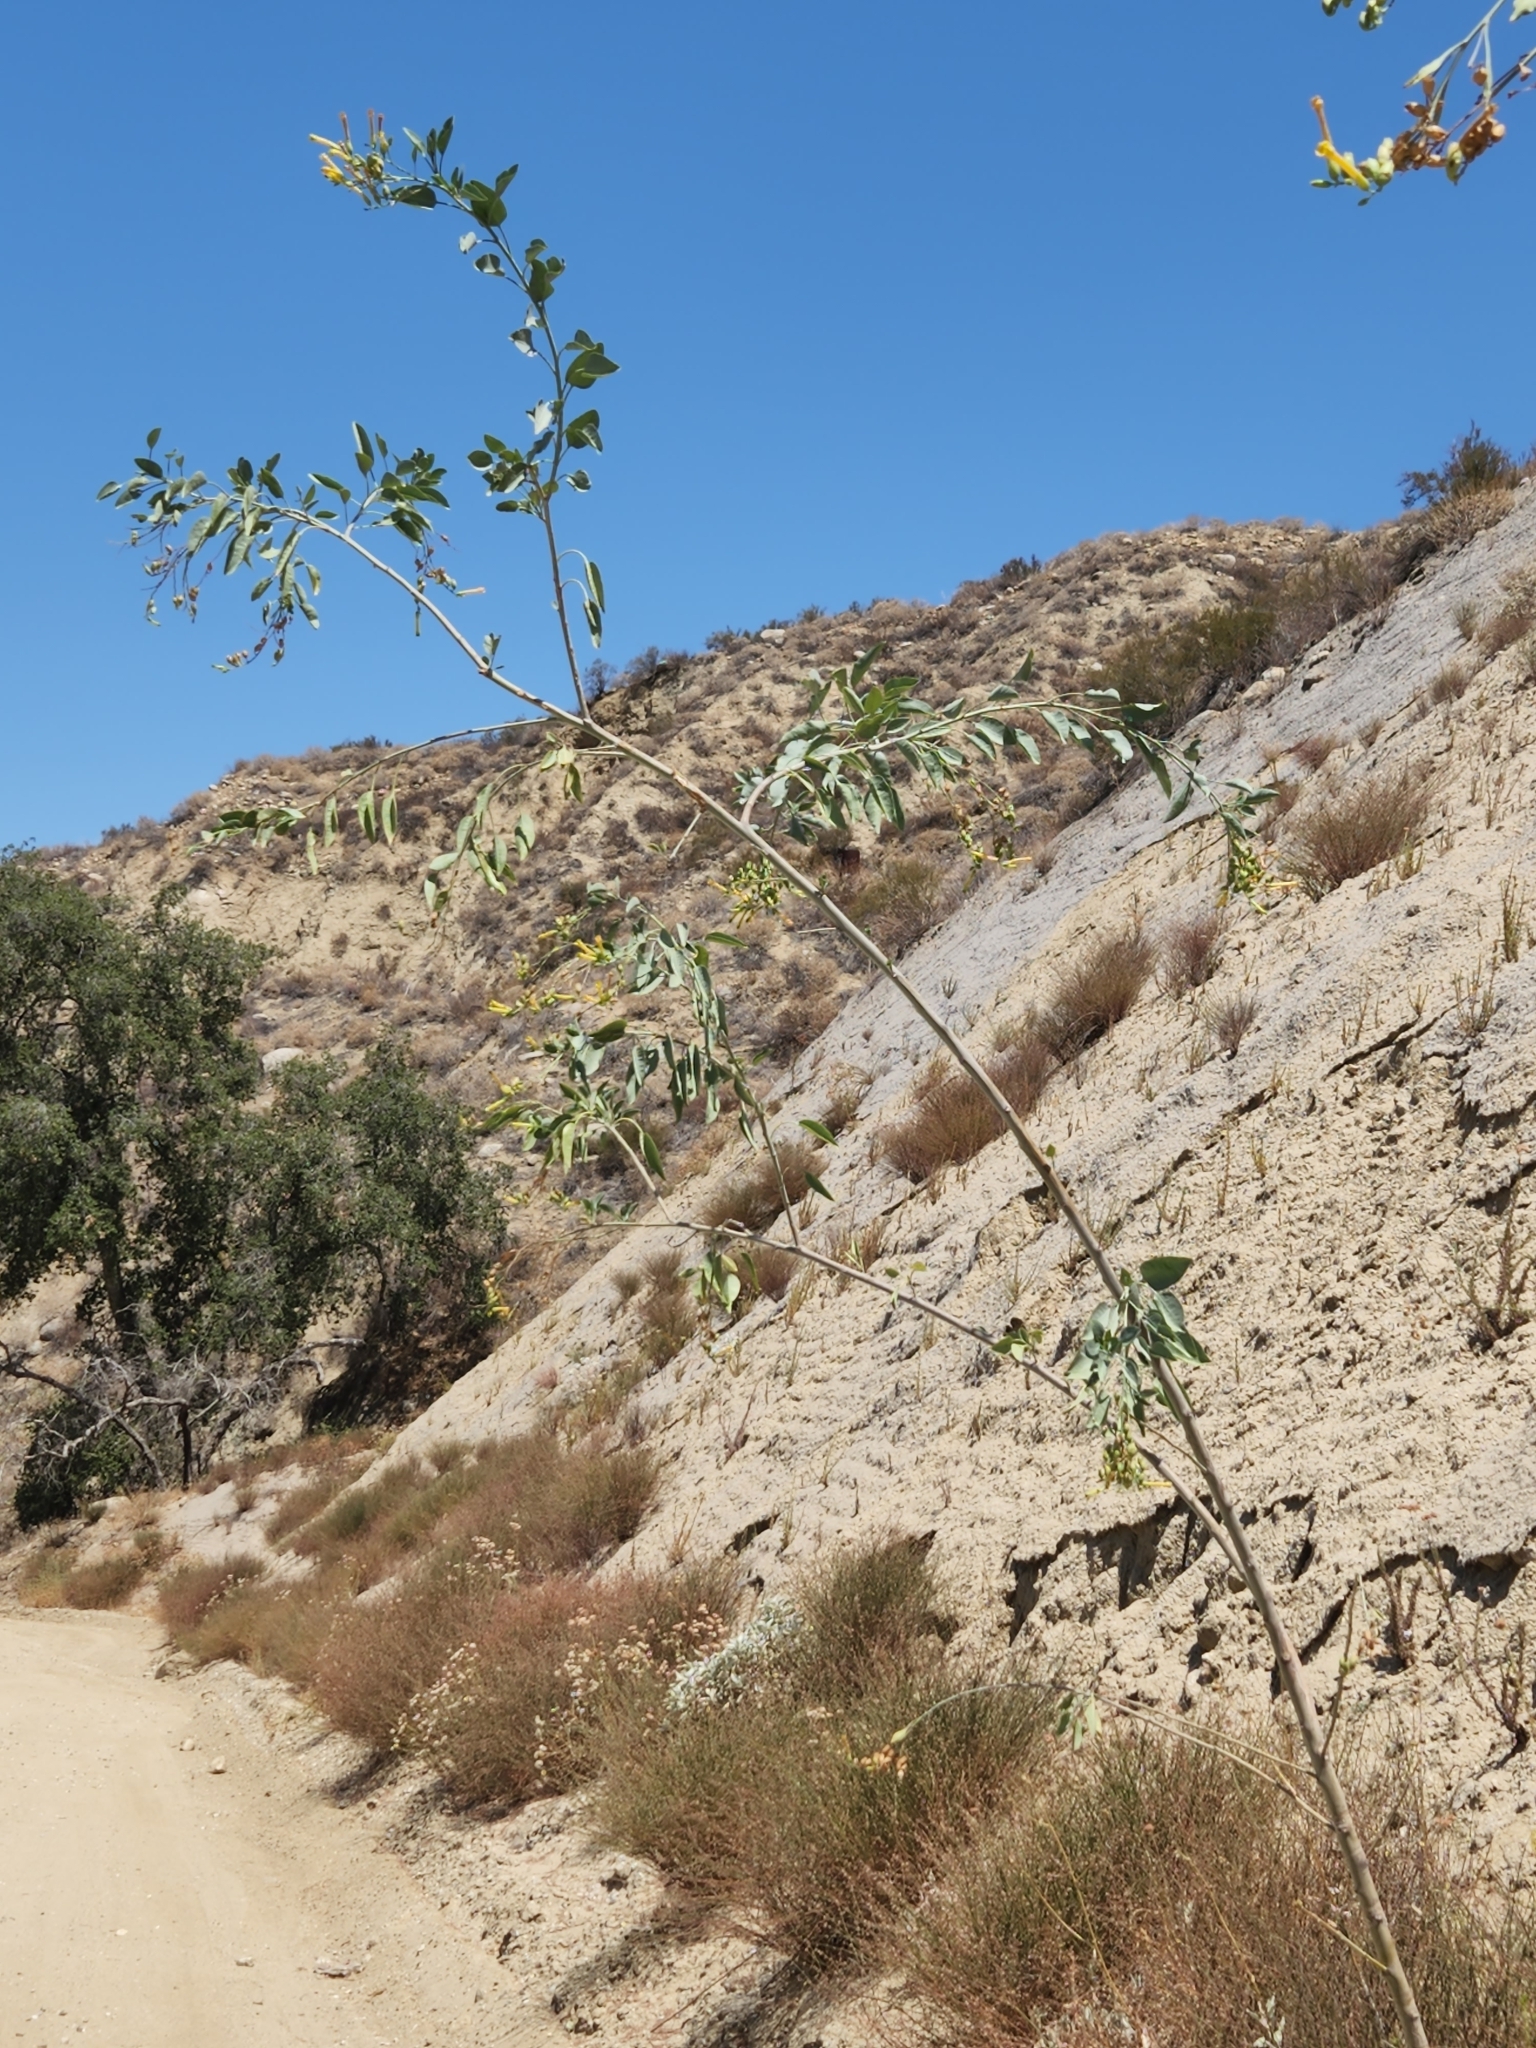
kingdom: Plantae
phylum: Tracheophyta
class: Magnoliopsida
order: Solanales
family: Solanaceae
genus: Nicotiana
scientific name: Nicotiana glauca
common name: Tree tobacco
